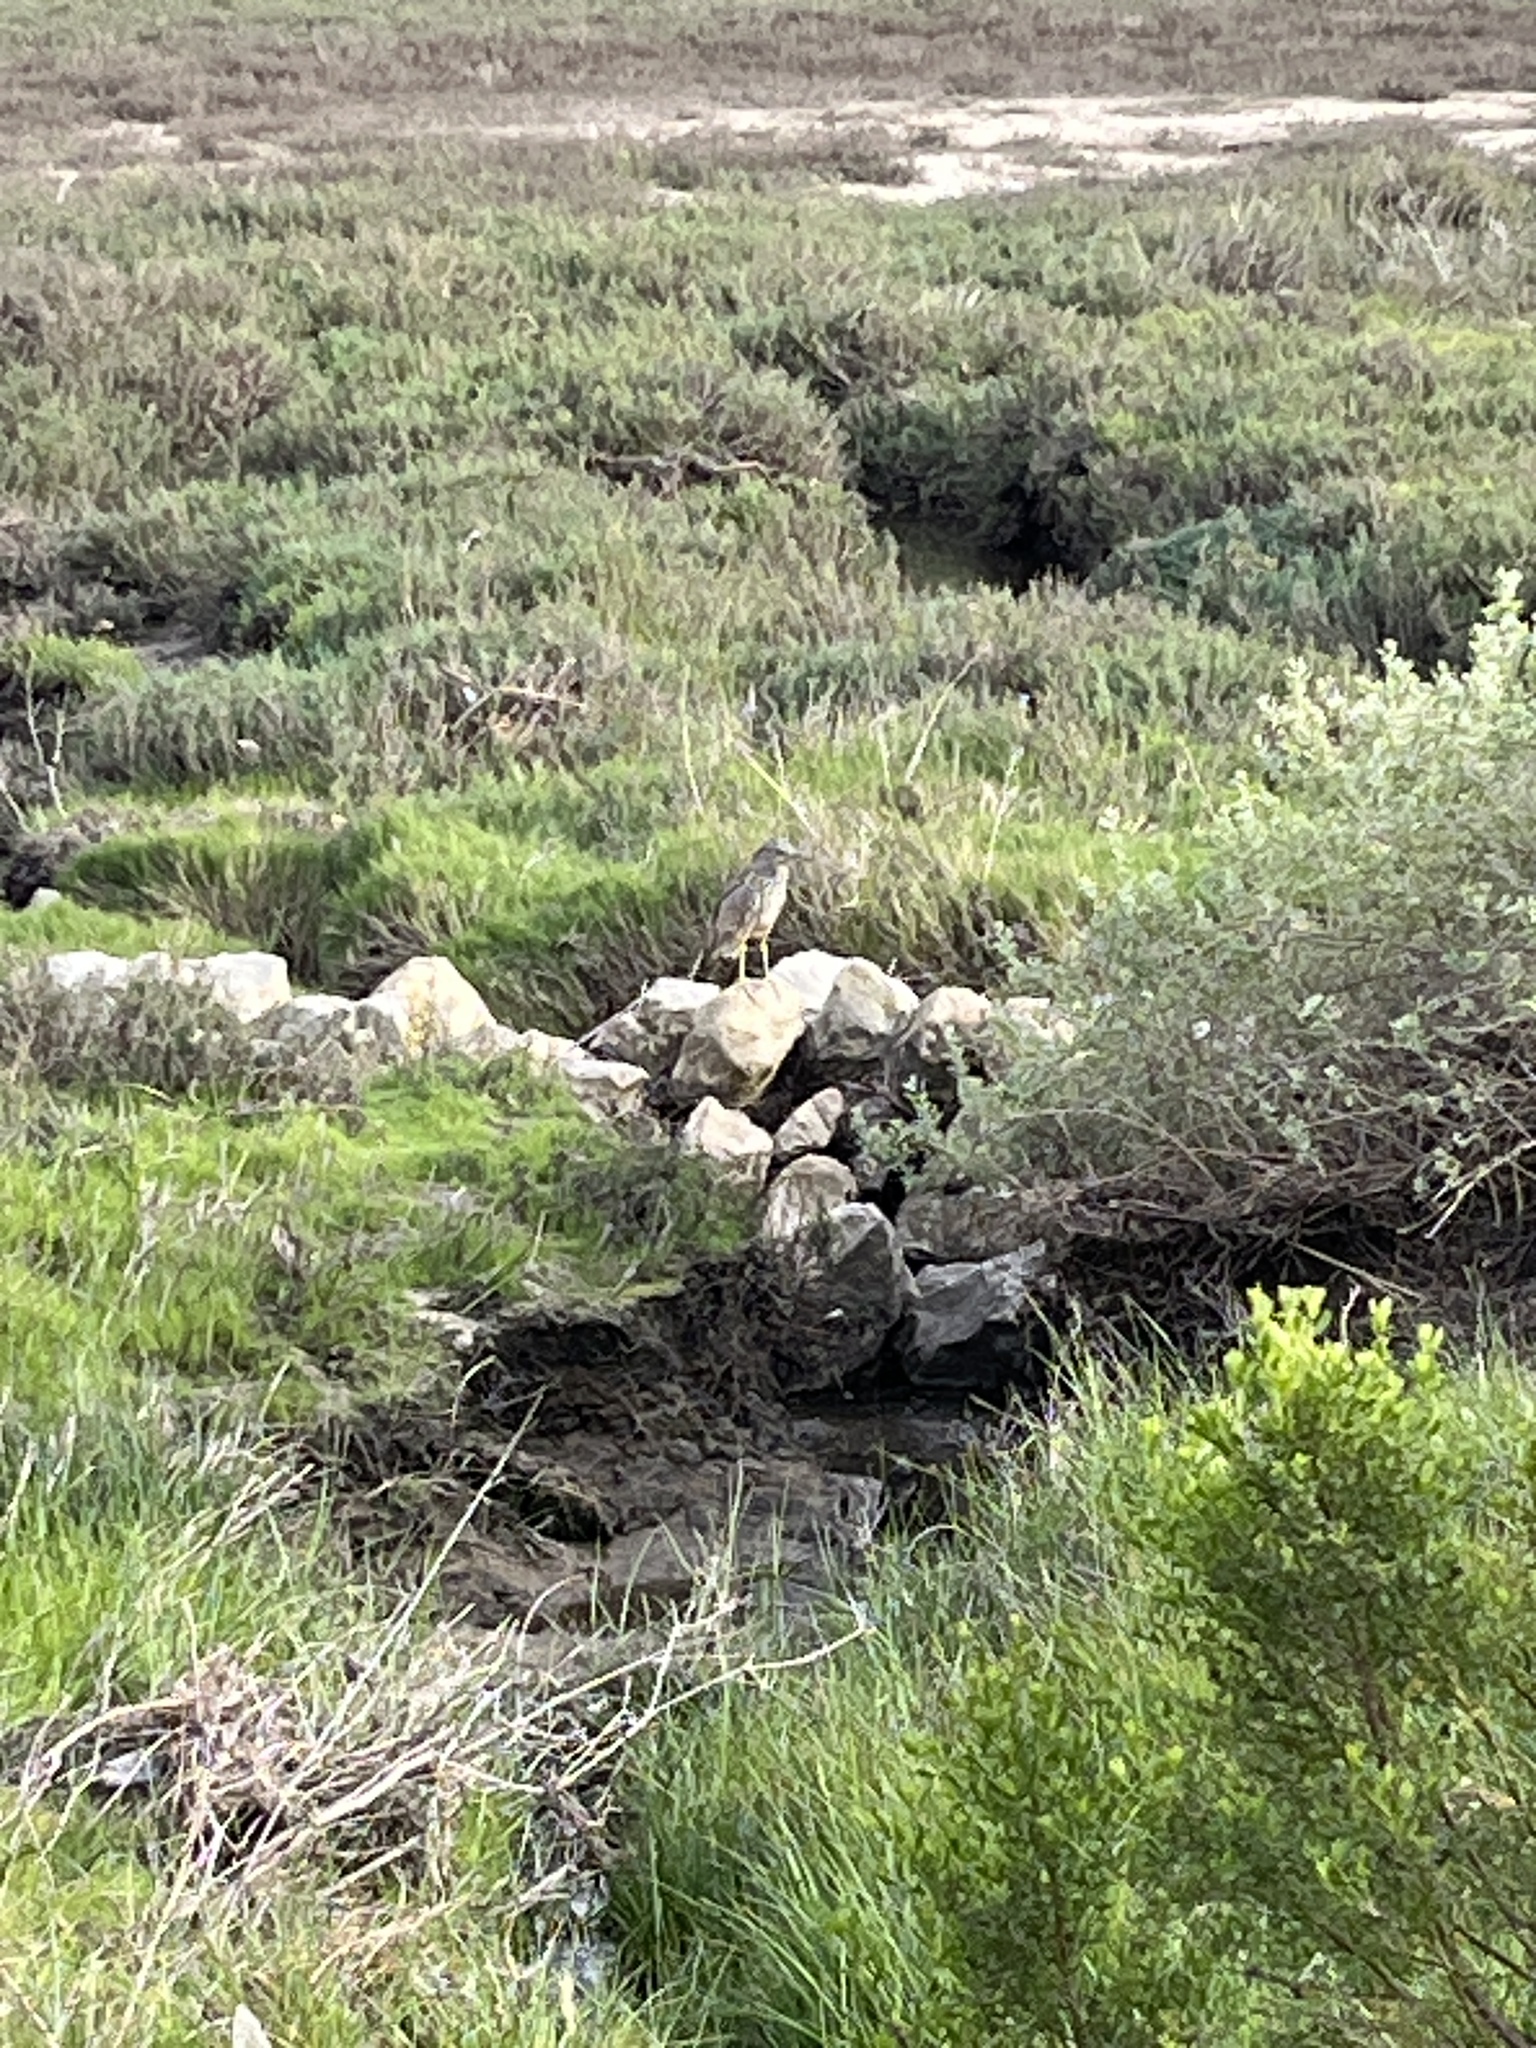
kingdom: Animalia
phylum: Chordata
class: Aves
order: Pelecaniformes
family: Ardeidae
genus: Nycticorax
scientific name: Nycticorax nycticorax
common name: Black-crowned night heron
